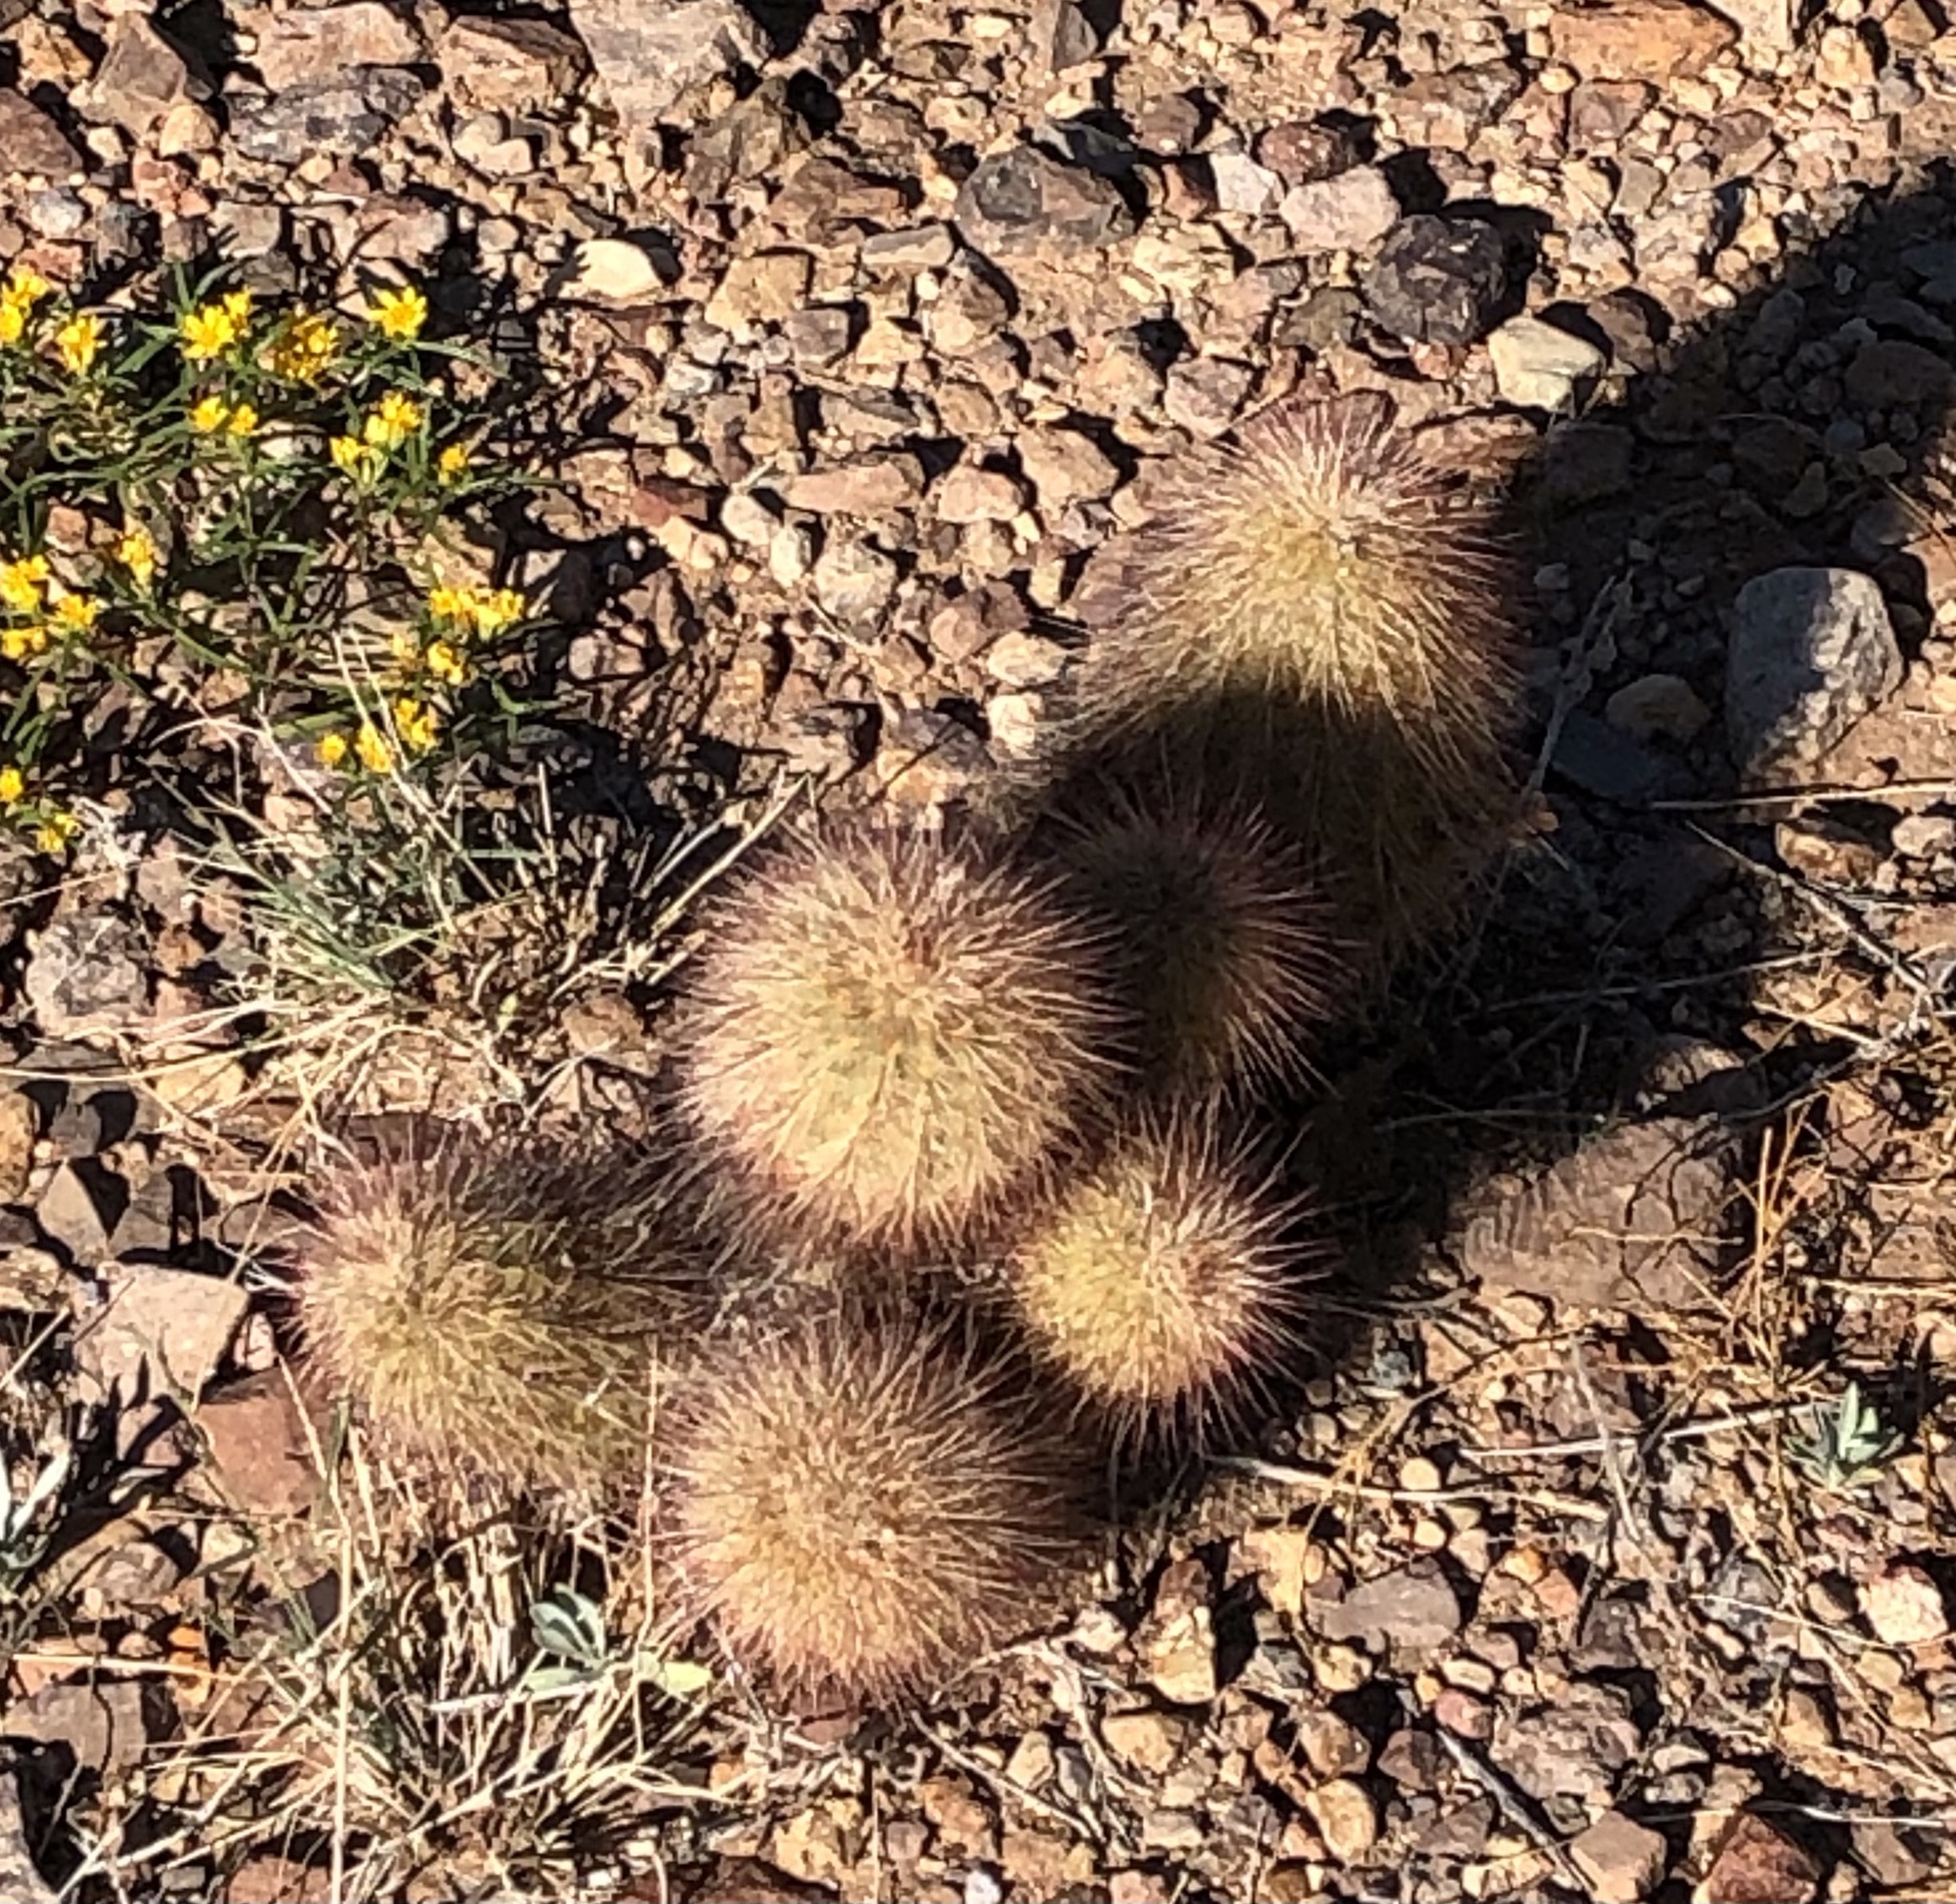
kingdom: Plantae
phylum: Tracheophyta
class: Magnoliopsida
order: Caryophyllales
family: Cactaceae
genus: Echinocereus
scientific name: Echinocereus russanthus
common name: Brownspine hedgehog cactus
